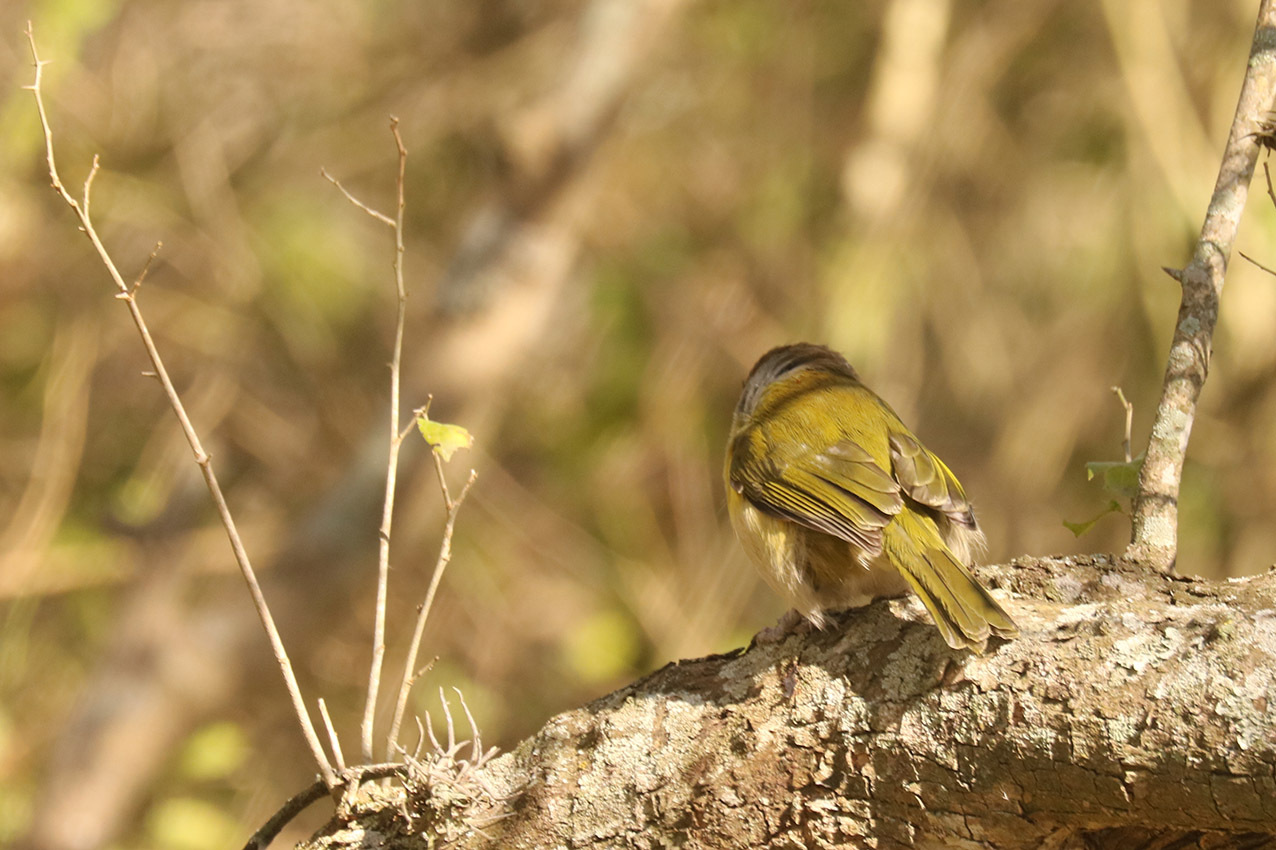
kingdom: Animalia
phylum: Chordata
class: Aves
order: Passeriformes
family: Vireonidae
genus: Cyclarhis
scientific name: Cyclarhis gujanensis
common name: Rufous-browed peppershrike
